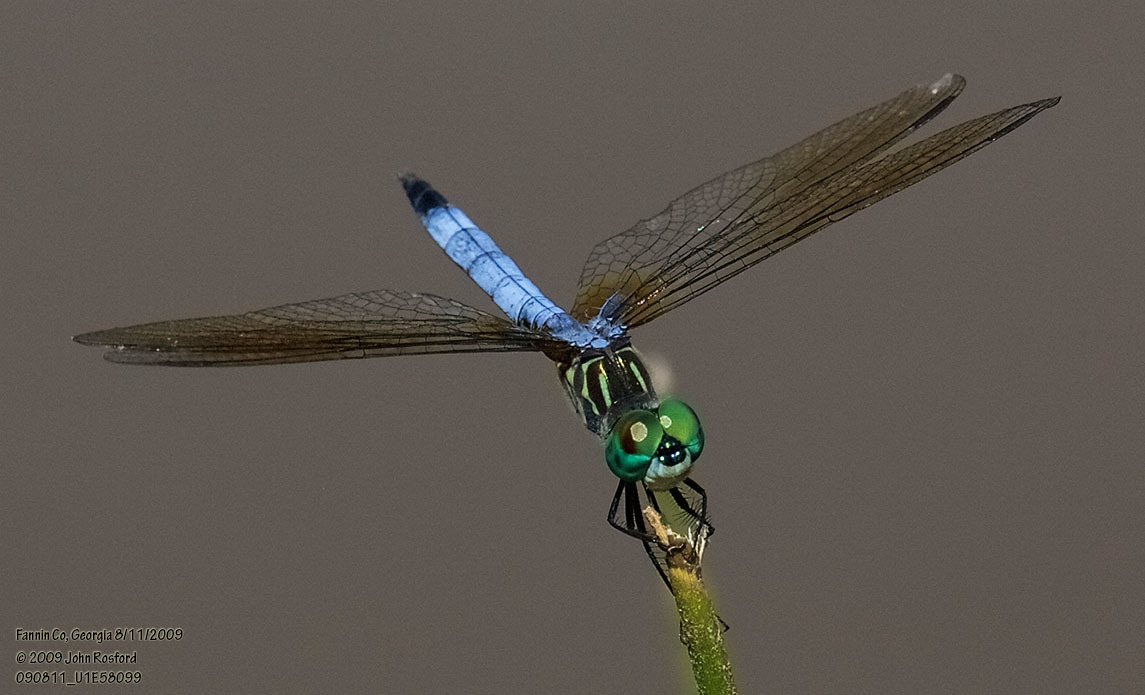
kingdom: Animalia
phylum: Arthropoda
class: Insecta
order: Odonata
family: Libellulidae
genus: Pachydiplax
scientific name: Pachydiplax longipennis
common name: Blue dasher
